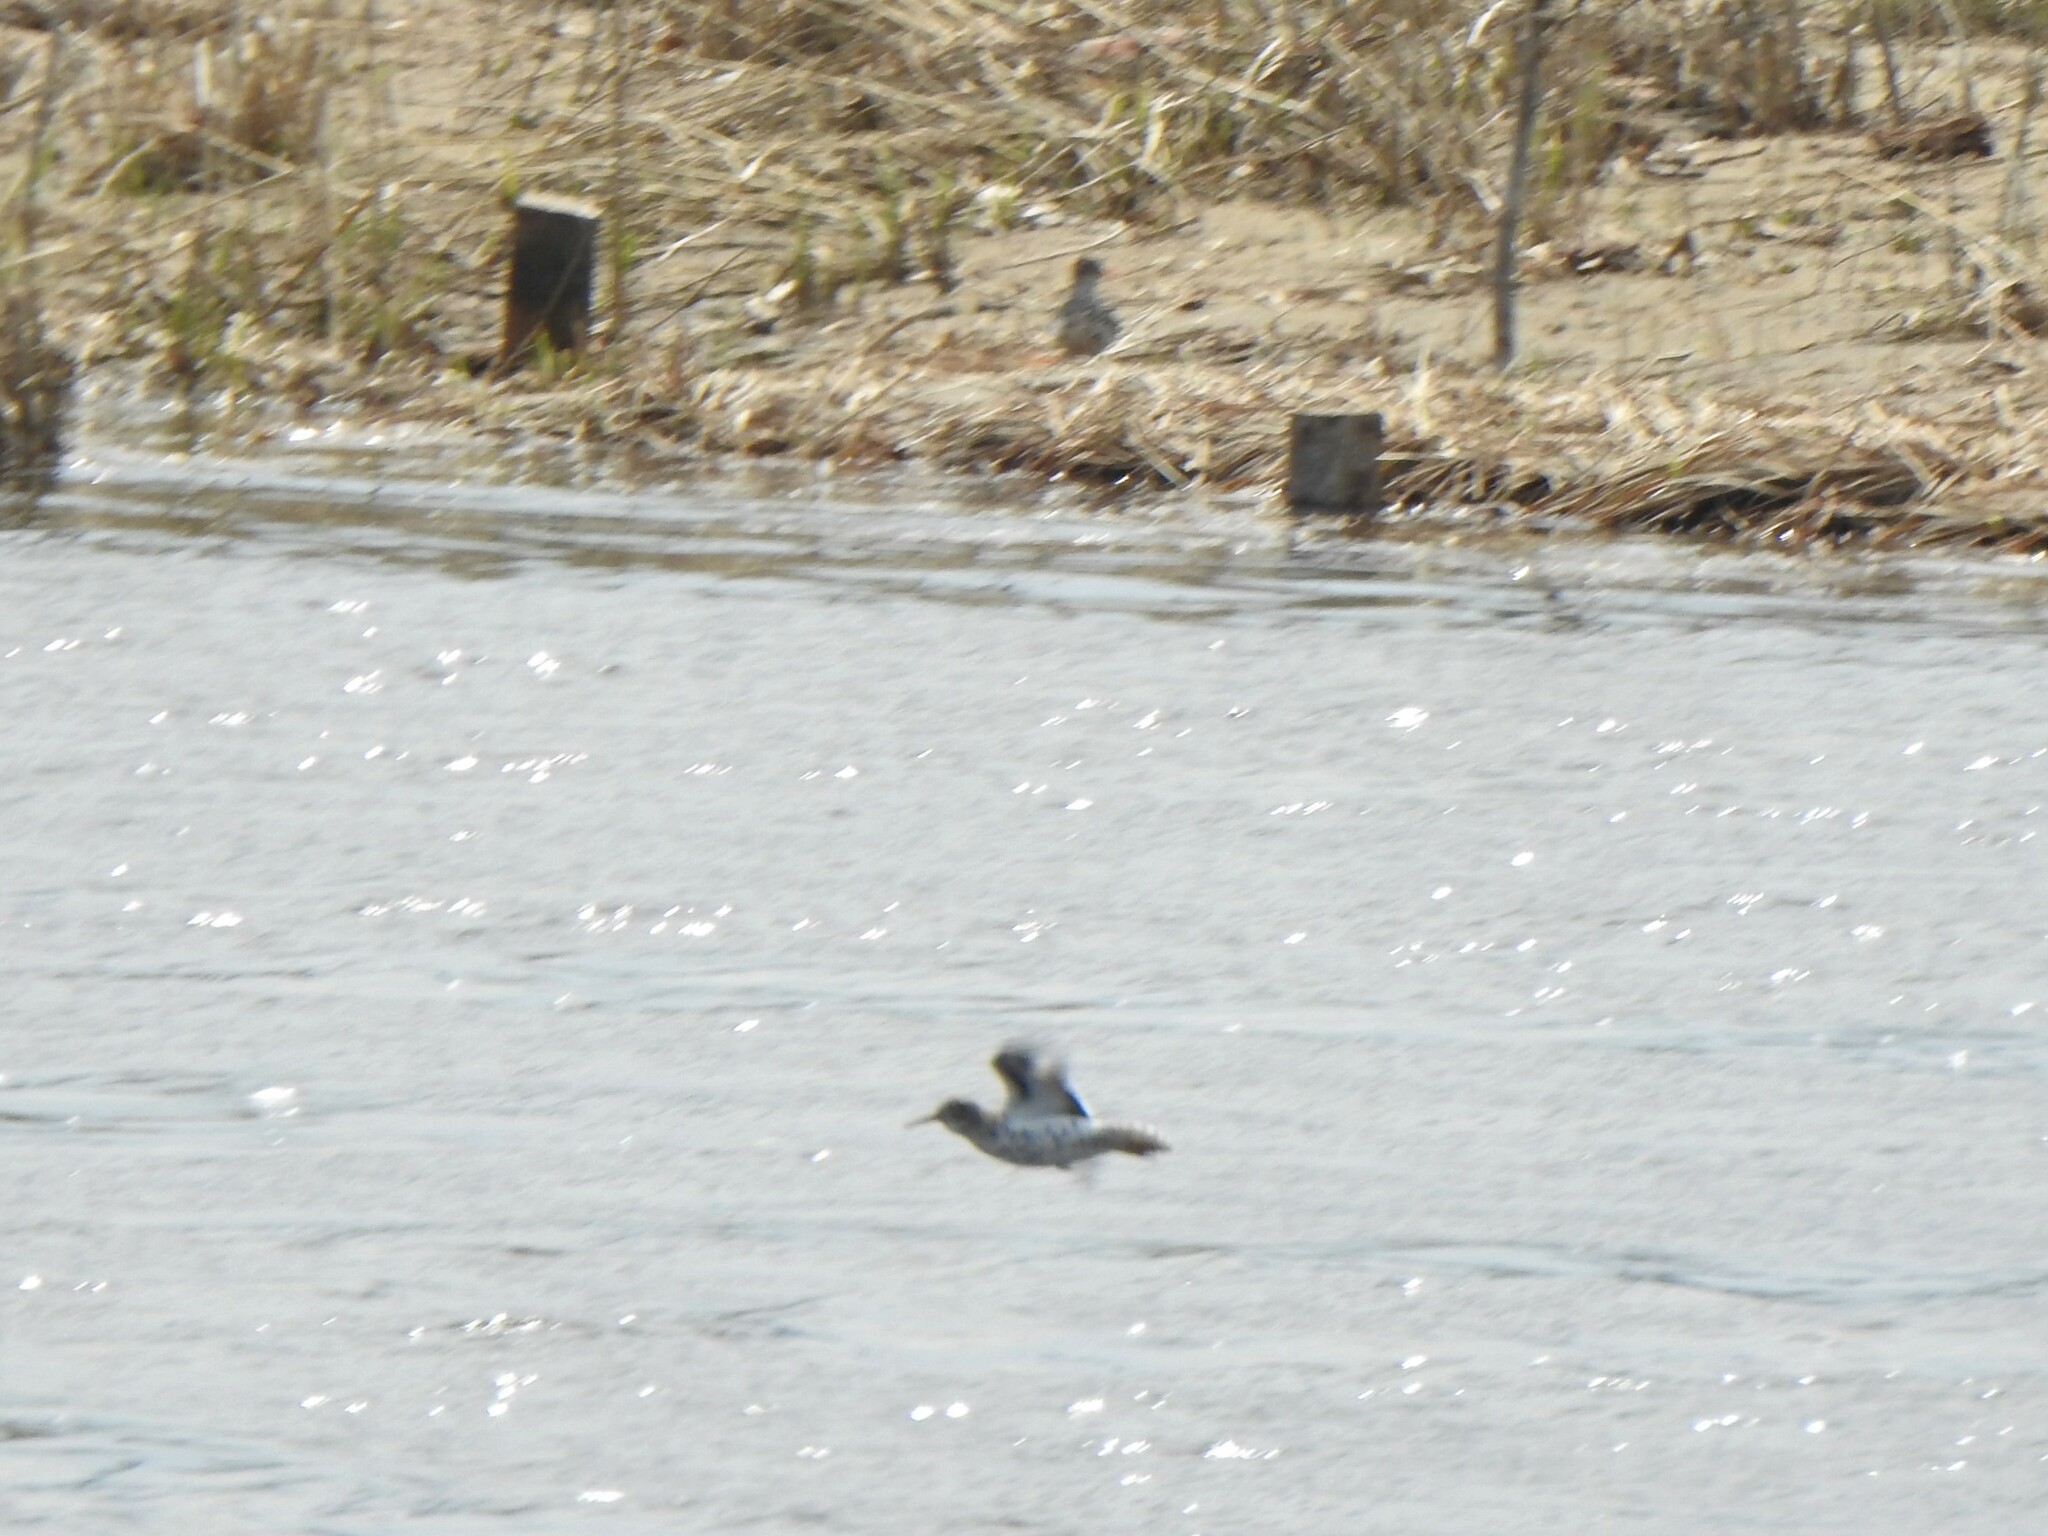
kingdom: Animalia
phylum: Chordata
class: Aves
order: Charadriiformes
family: Scolopacidae
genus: Actitis
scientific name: Actitis macularius
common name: Spotted sandpiper
